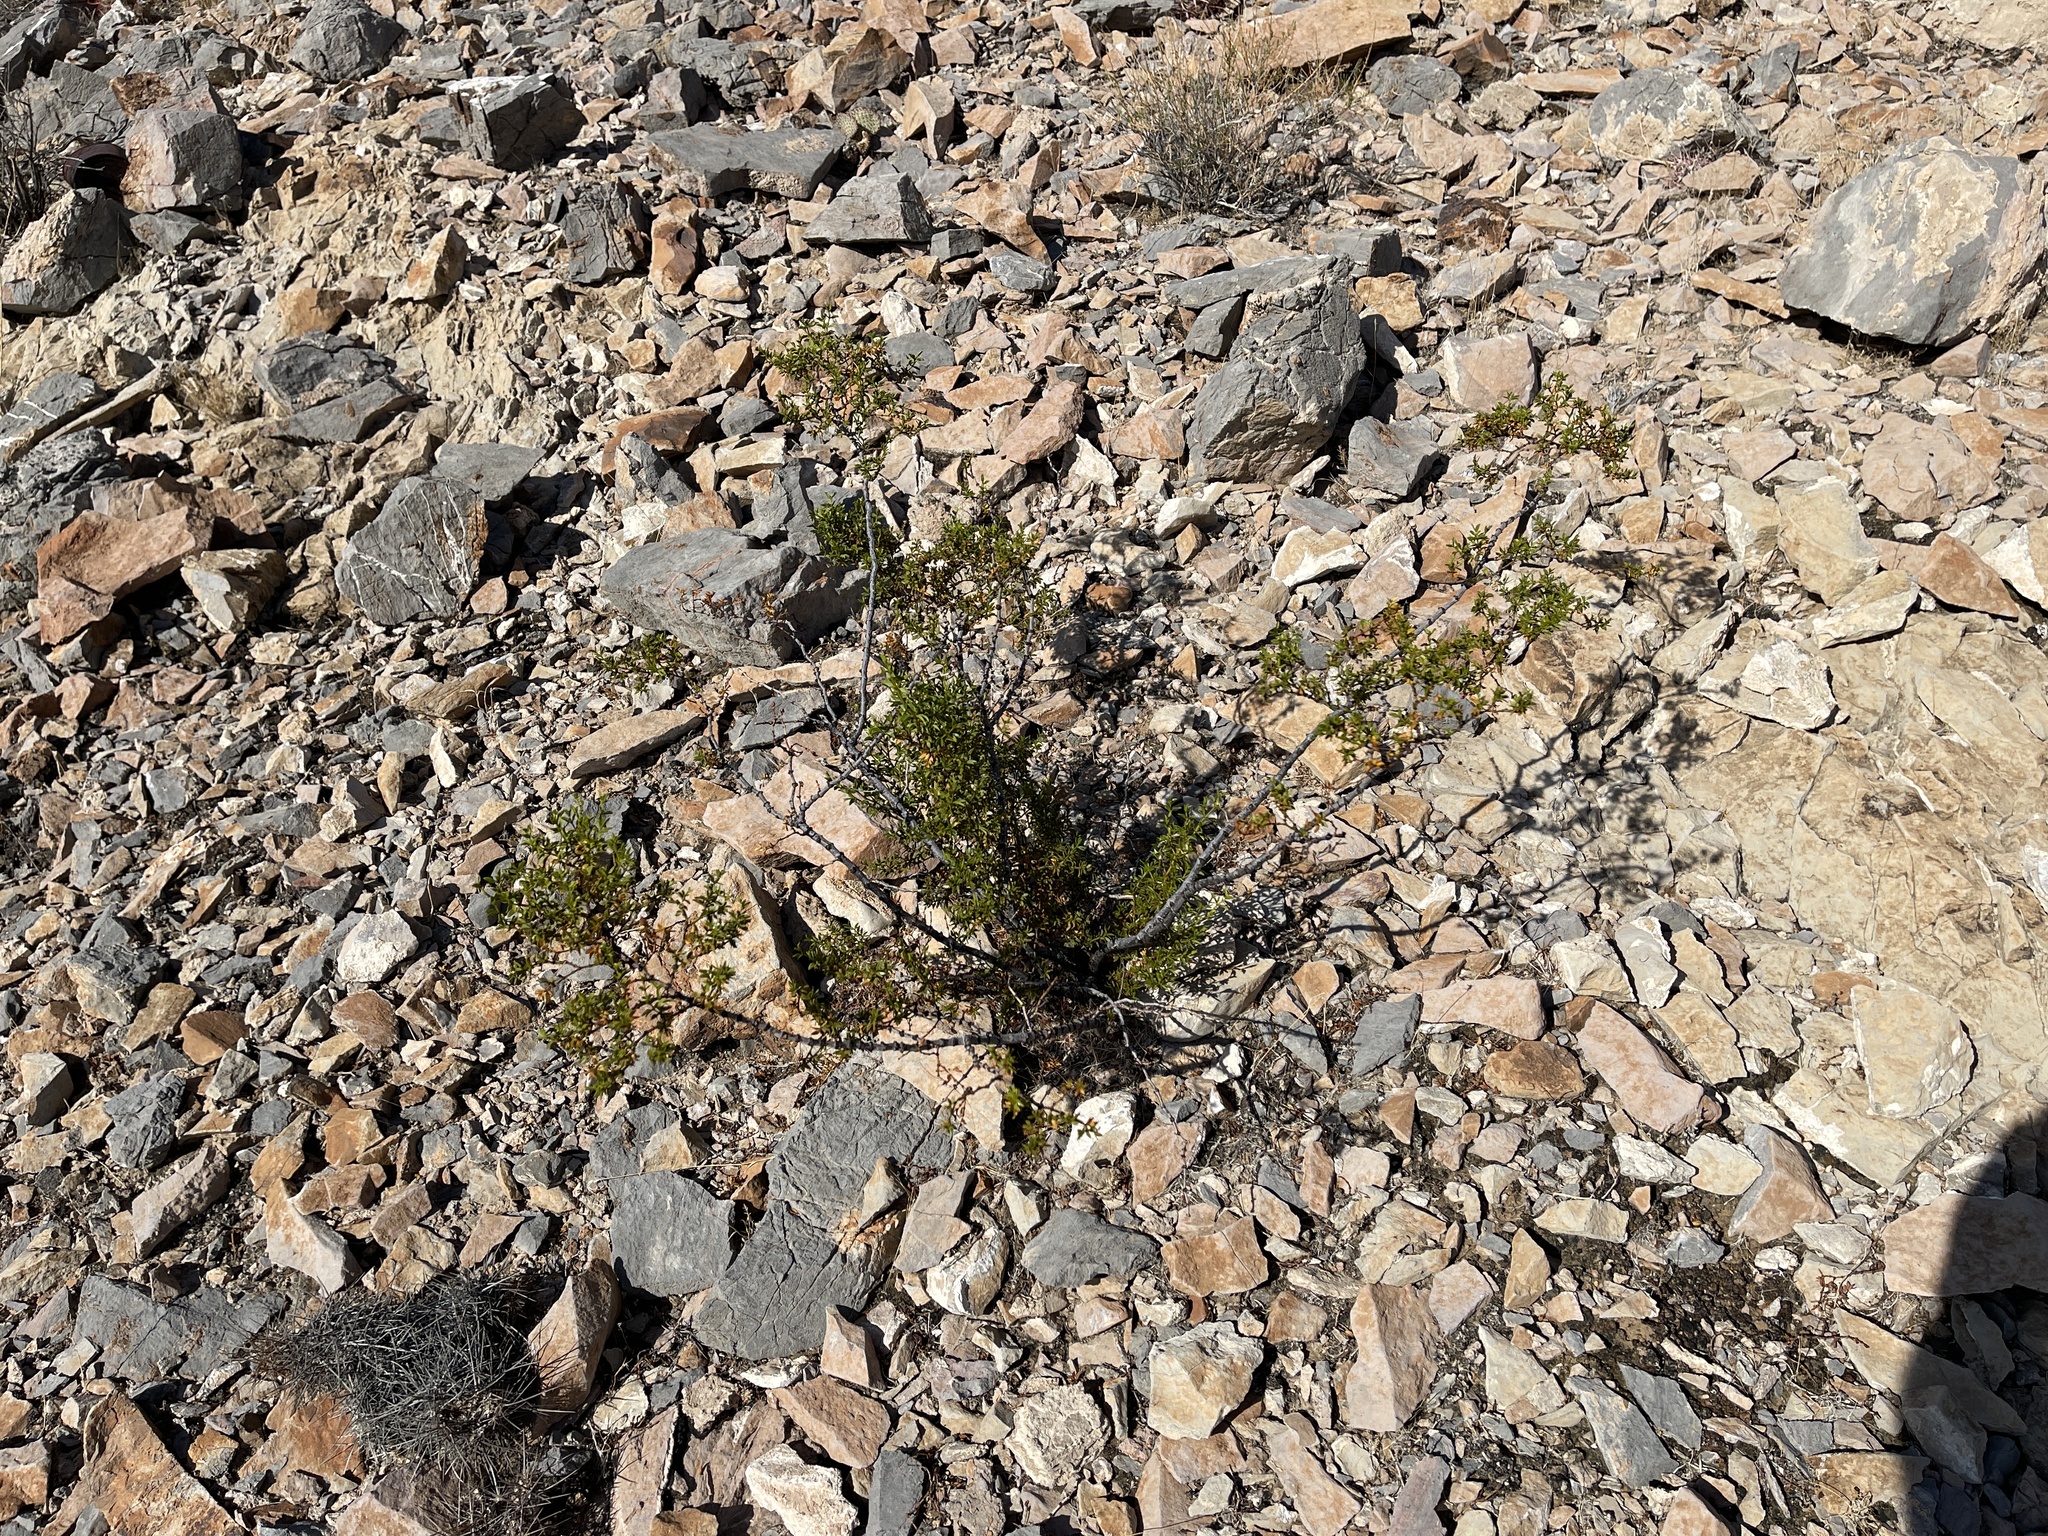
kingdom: Plantae
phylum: Tracheophyta
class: Magnoliopsida
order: Zygophyllales
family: Zygophyllaceae
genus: Larrea
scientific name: Larrea tridentata
